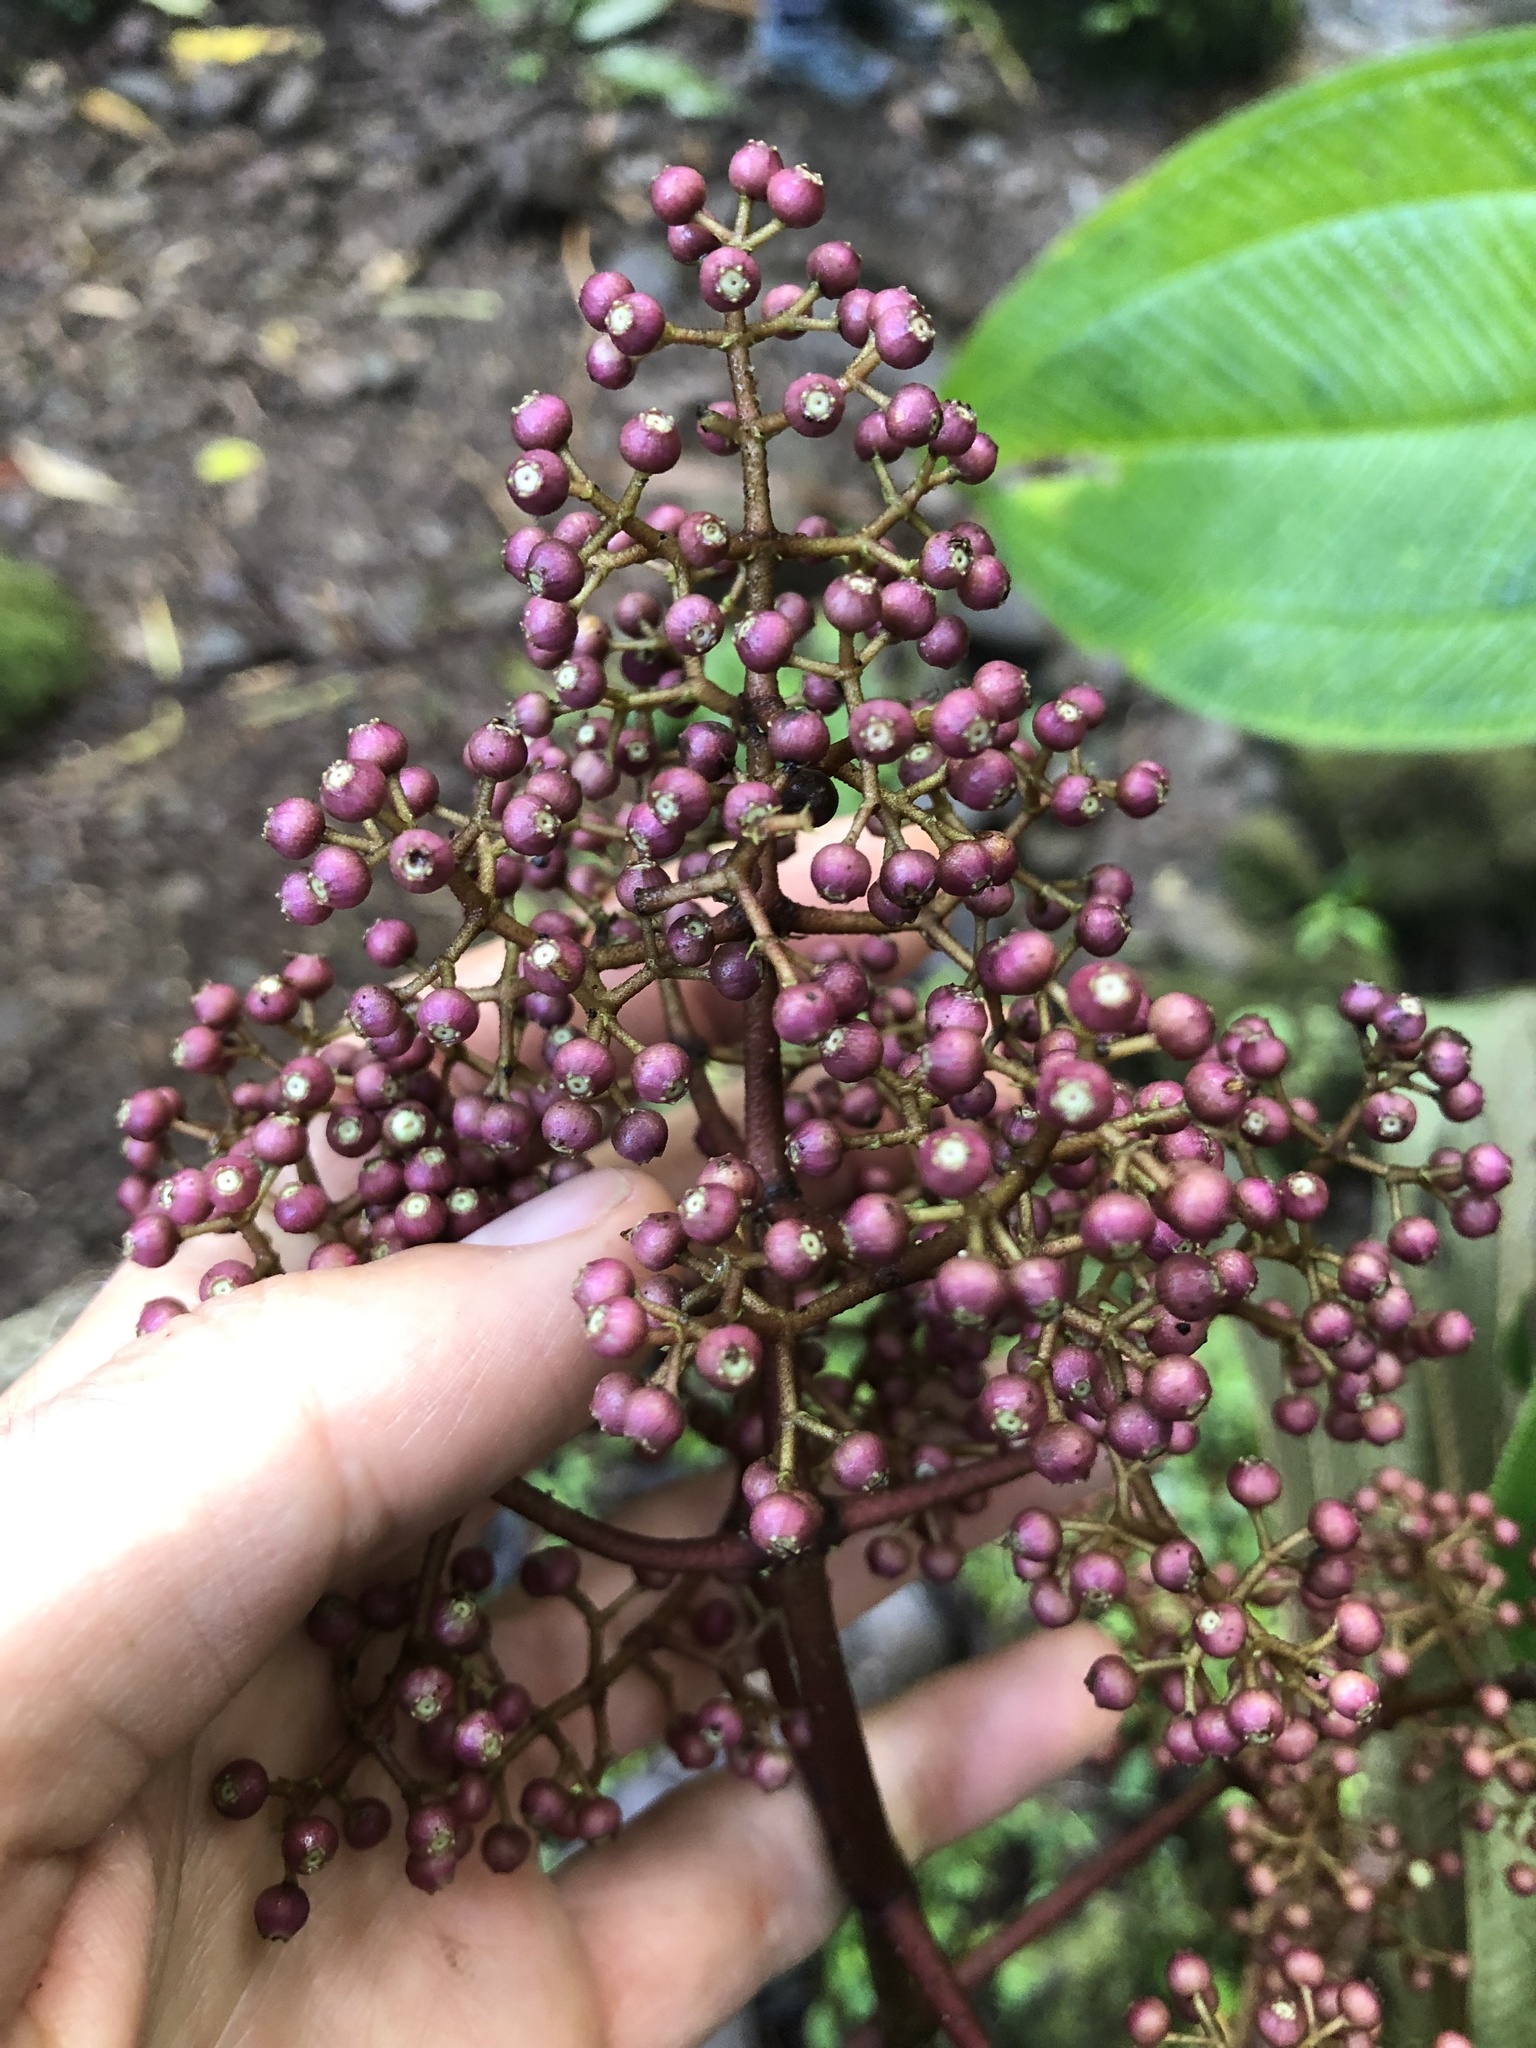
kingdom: Plantae
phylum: Tracheophyta
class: Magnoliopsida
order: Myrtales
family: Melastomataceae
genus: Miconia
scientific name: Miconia andreana
